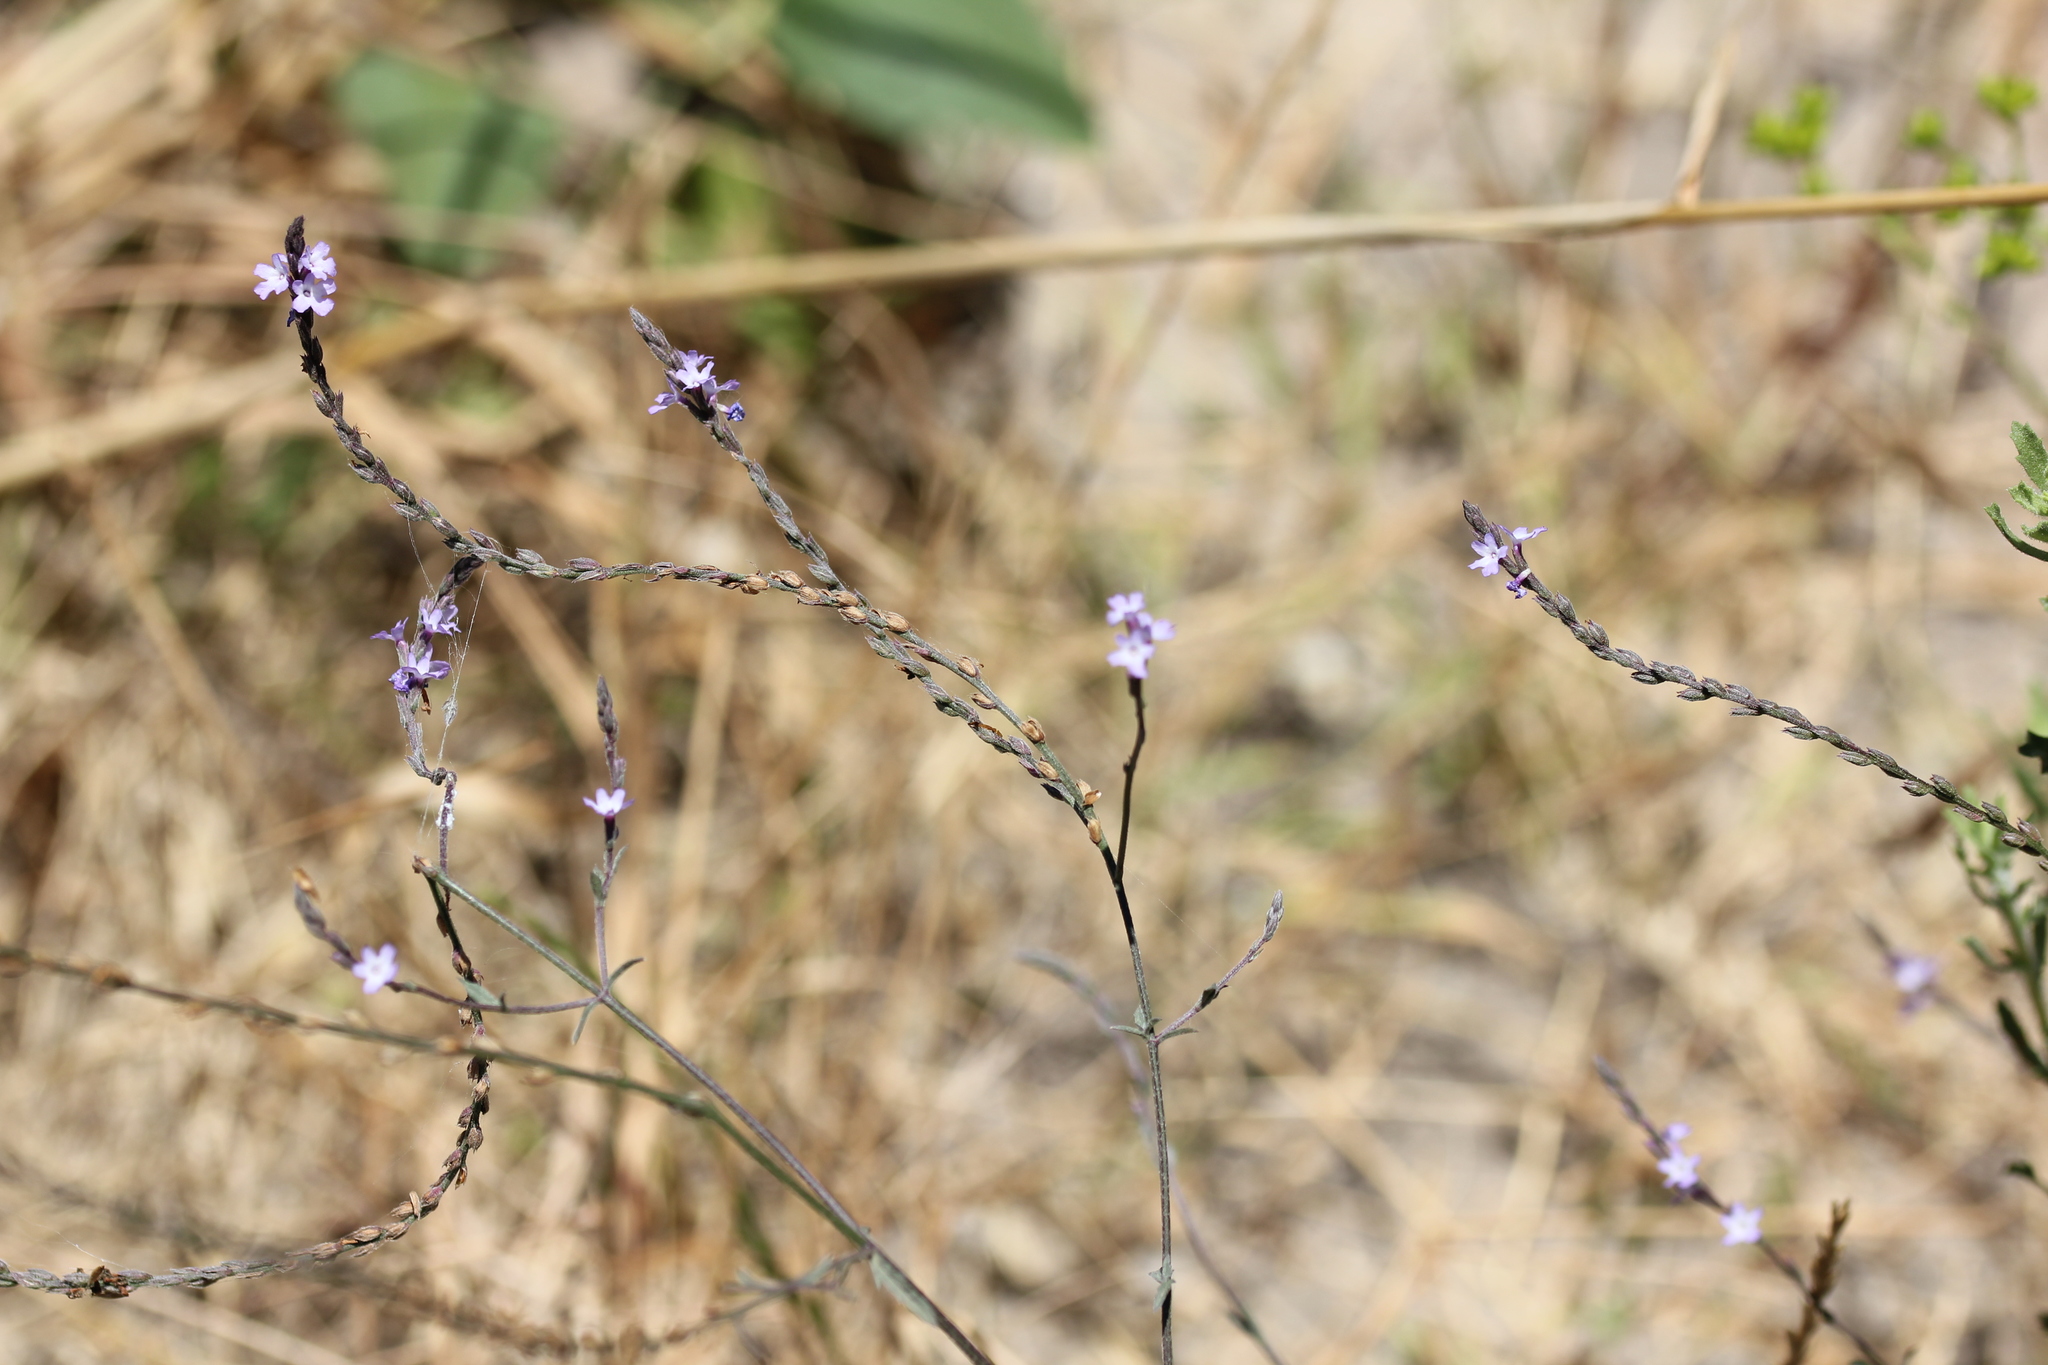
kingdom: Plantae
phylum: Tracheophyta
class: Magnoliopsida
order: Lamiales
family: Verbenaceae
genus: Verbena
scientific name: Verbena menthifolia
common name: Mint-leaf vervain
